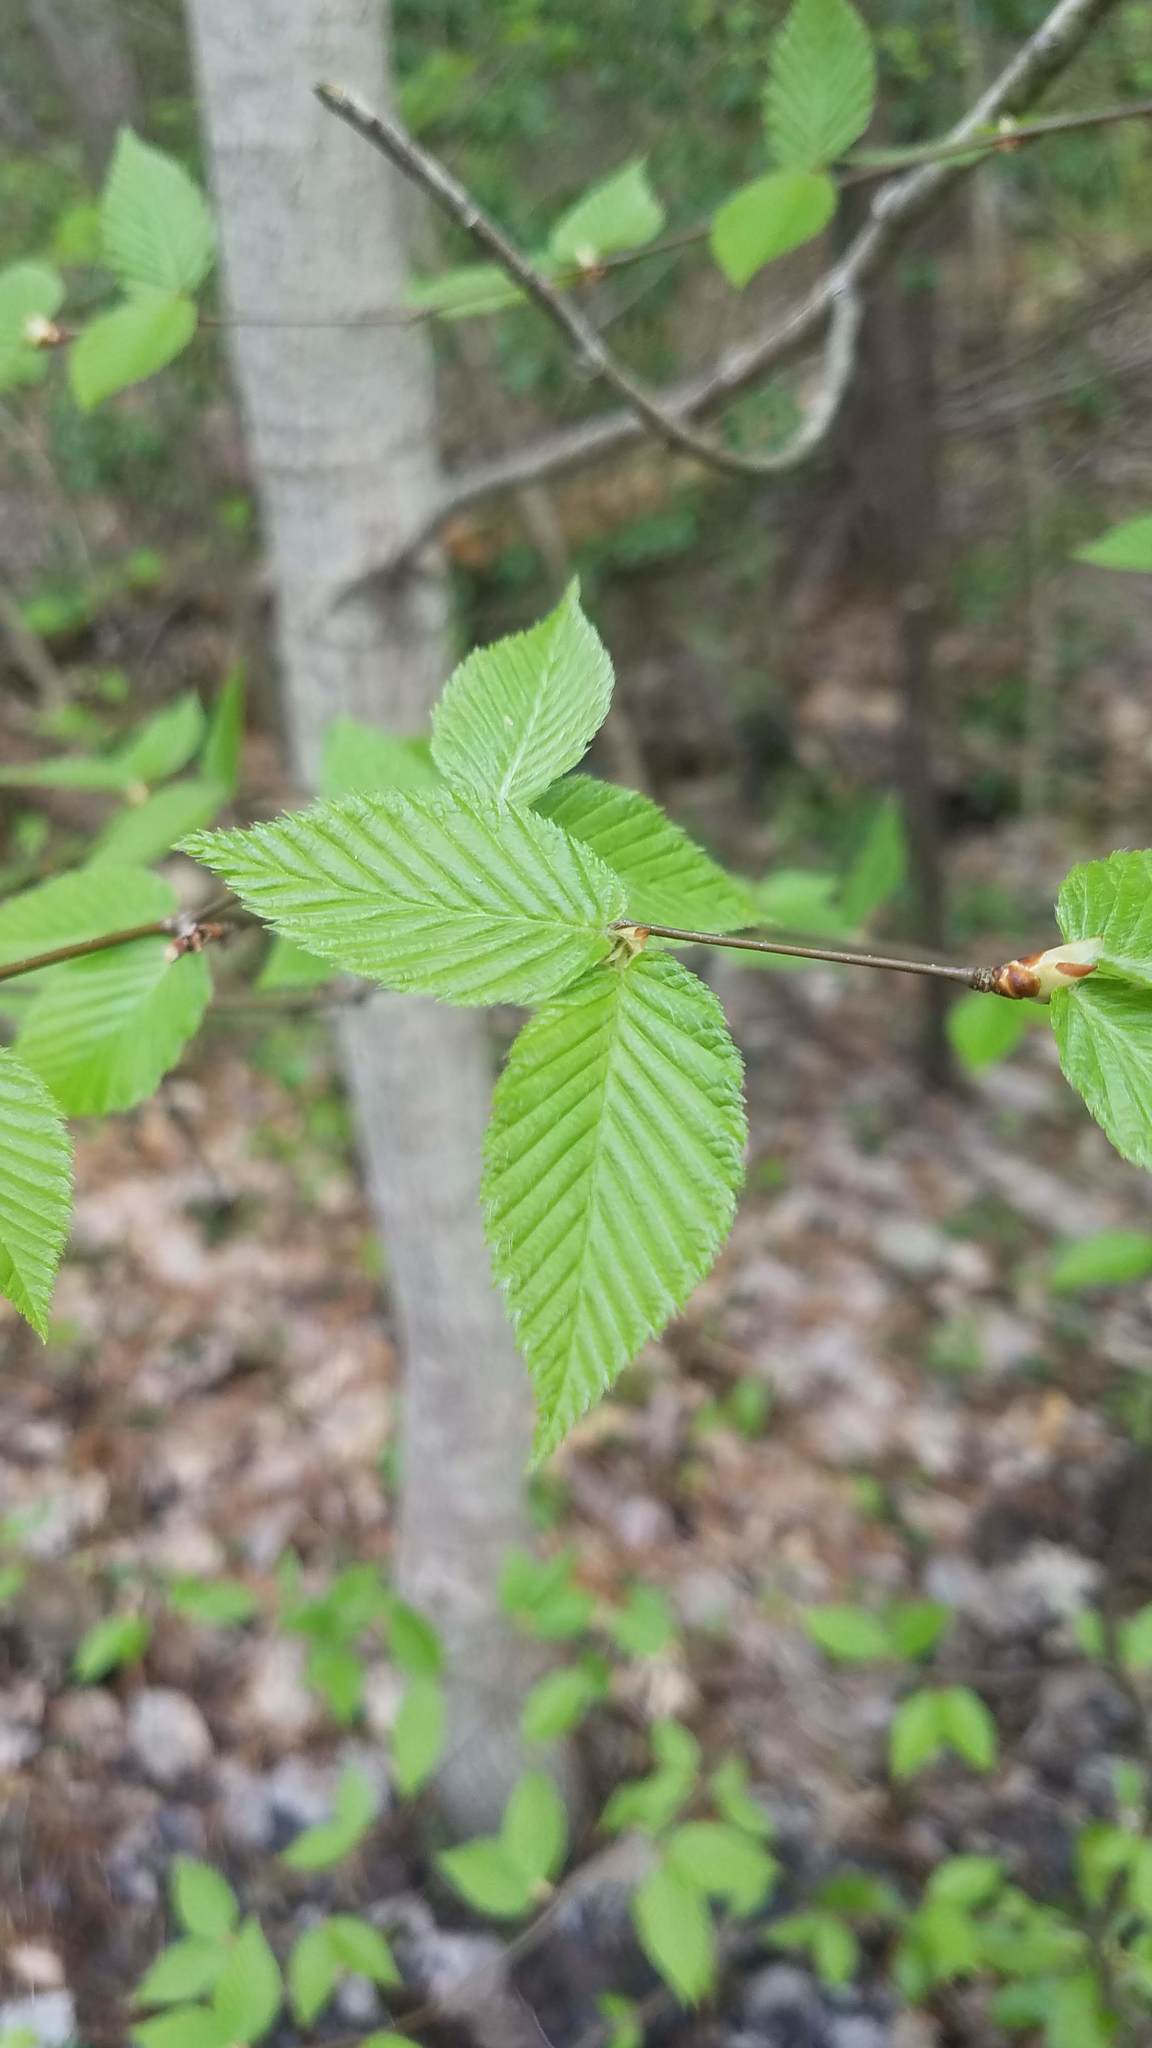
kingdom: Plantae
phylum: Tracheophyta
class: Magnoliopsida
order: Fagales
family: Fagaceae
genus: Fagus
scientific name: Fagus grandifolia
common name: American beech
